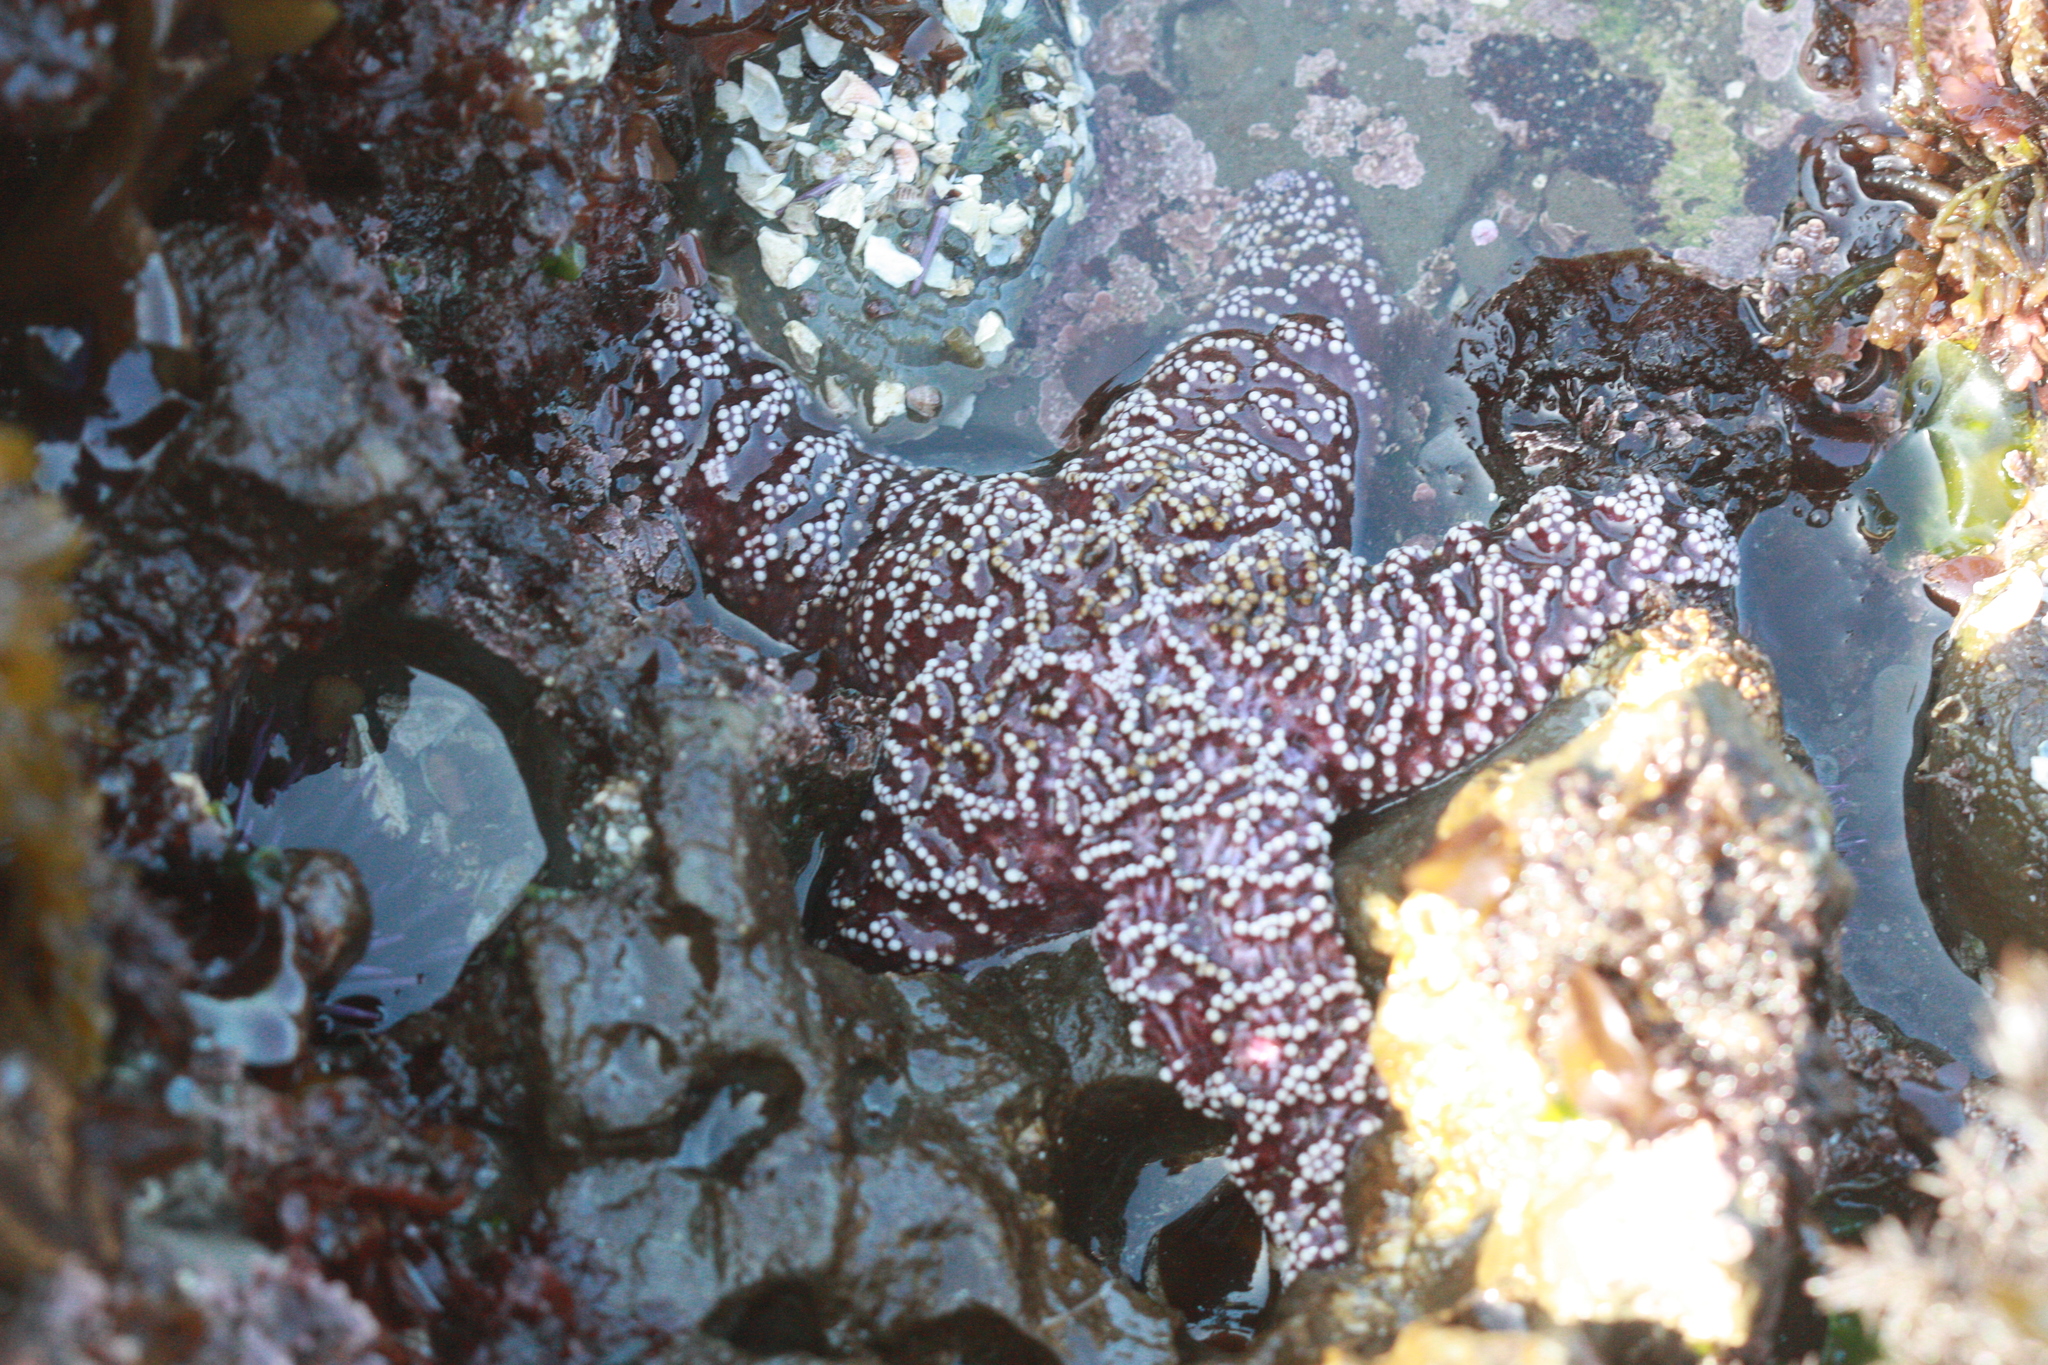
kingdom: Animalia
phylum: Echinodermata
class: Asteroidea
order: Forcipulatida
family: Asteriidae
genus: Pisaster
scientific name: Pisaster ochraceus
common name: Ochre stars
